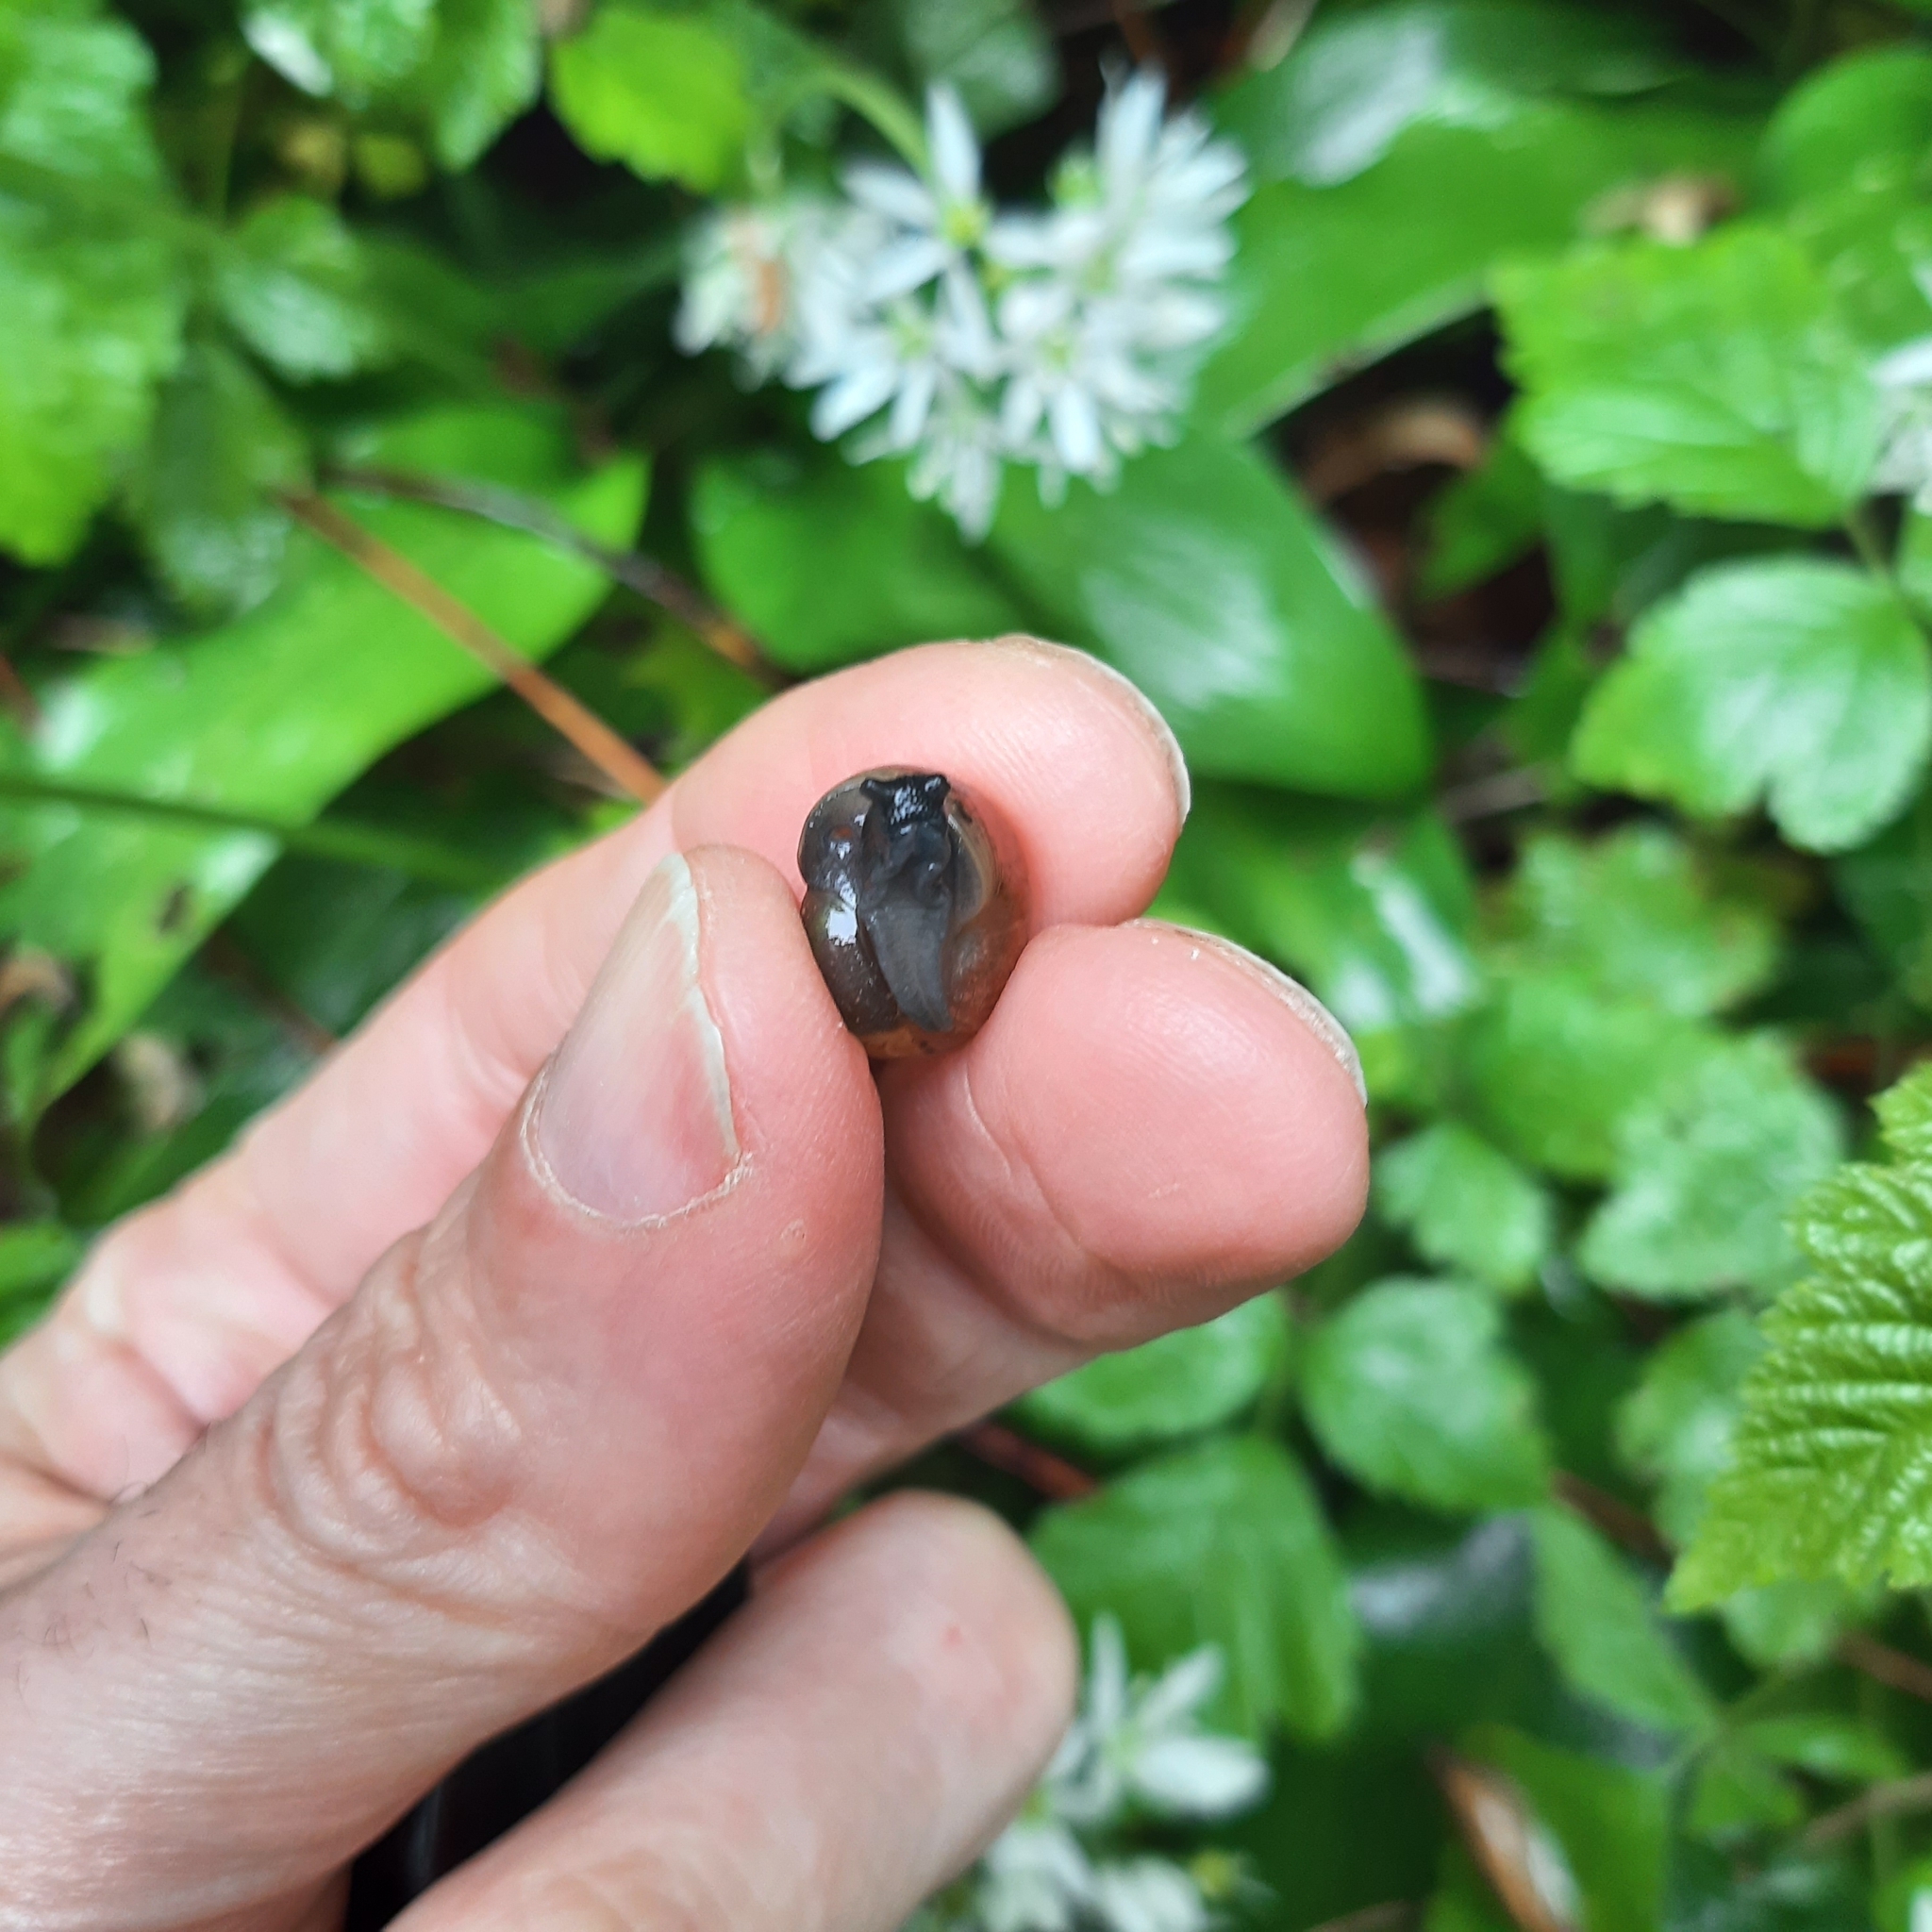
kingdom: Animalia
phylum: Mollusca
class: Gastropoda
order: Stylommatophora
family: Helicidae
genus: Arianta
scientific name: Arianta arbustorum
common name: Copse snail
